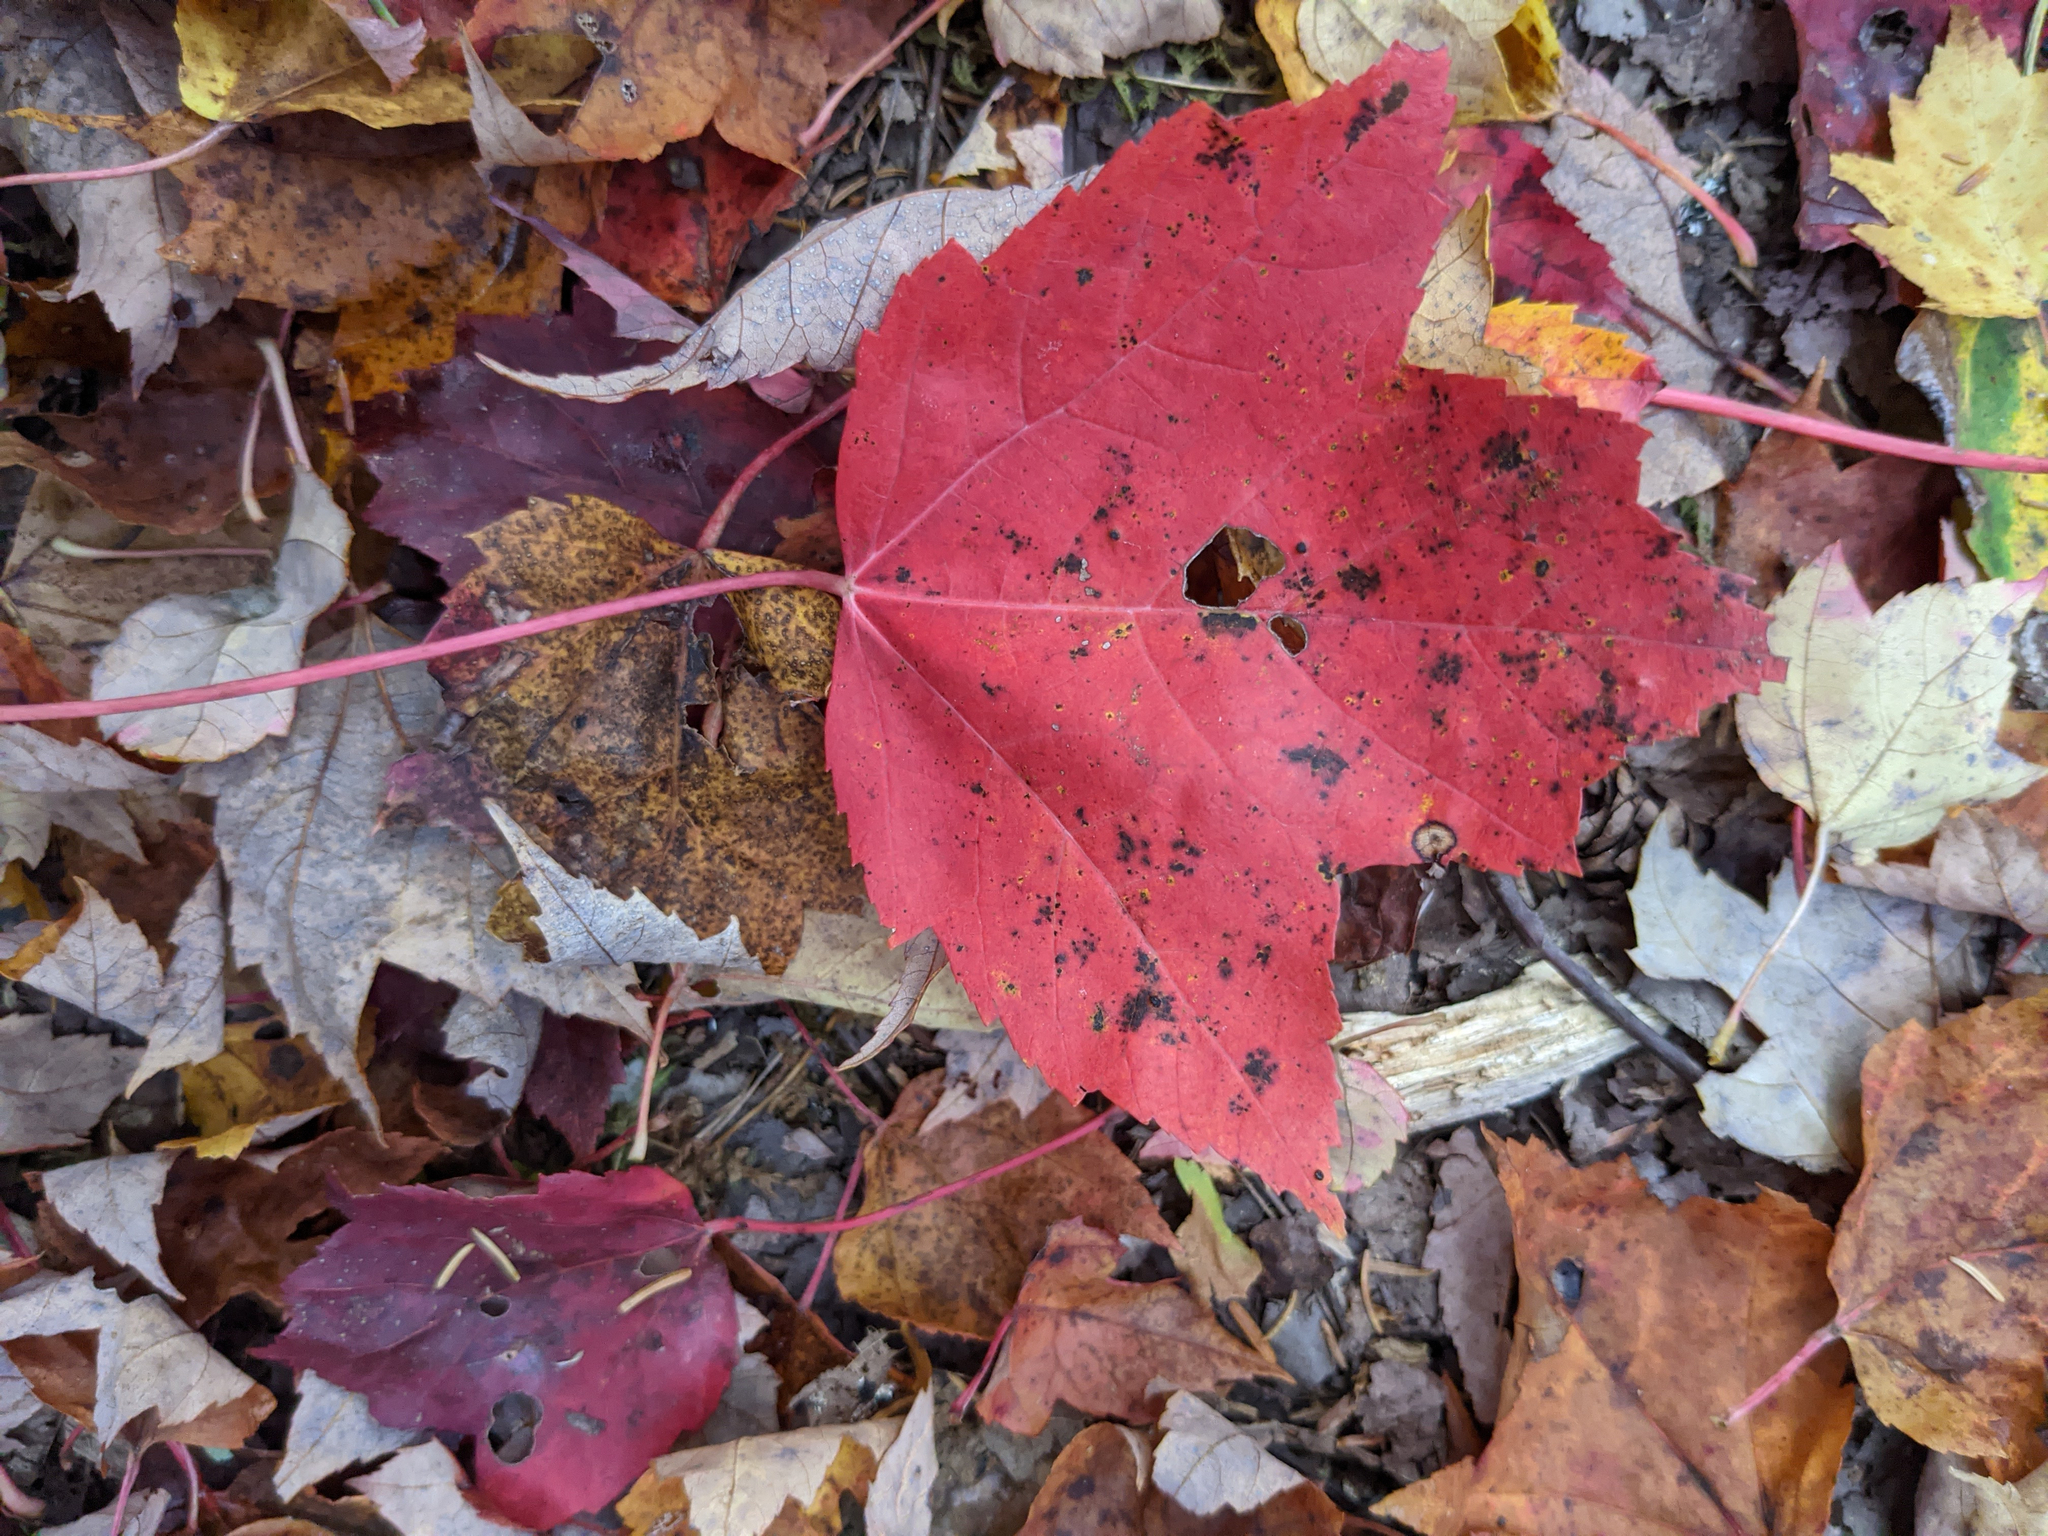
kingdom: Plantae
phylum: Tracheophyta
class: Magnoliopsida
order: Sapindales
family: Sapindaceae
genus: Acer
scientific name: Acer rubrum
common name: Red maple
